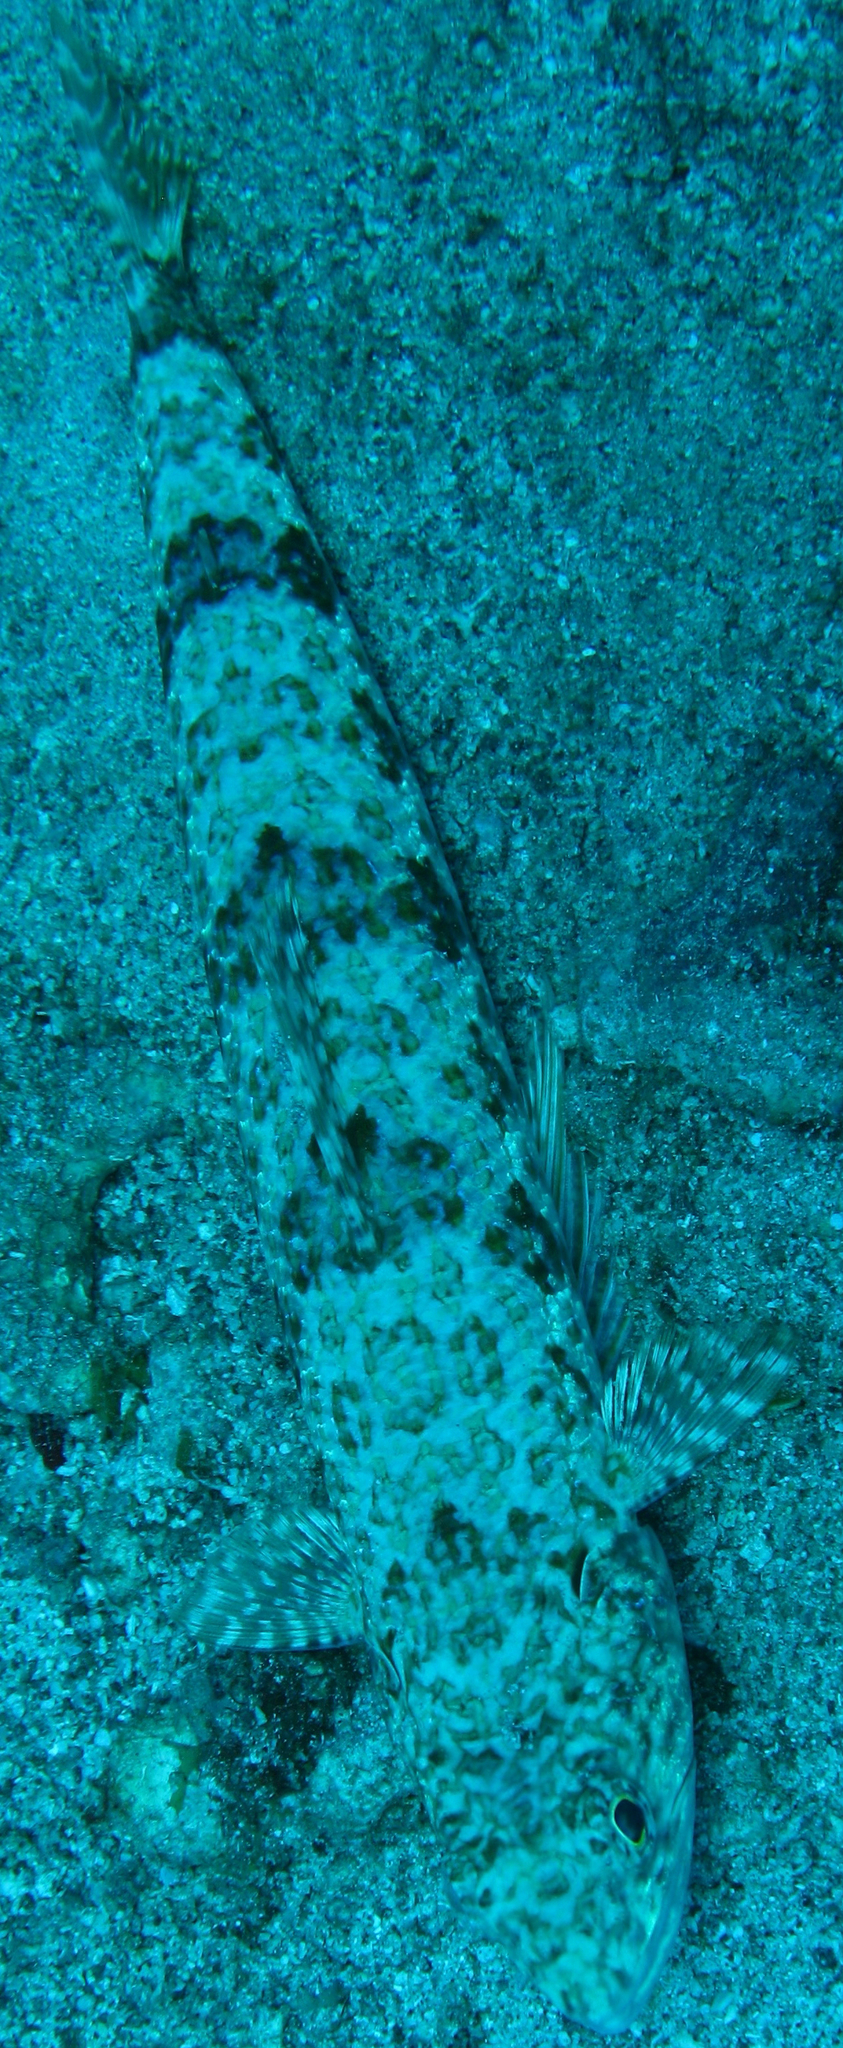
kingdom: Animalia
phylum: Chordata
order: Aulopiformes
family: Synodontidae
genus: Synodus
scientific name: Synodus intermedius
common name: Sand diver
